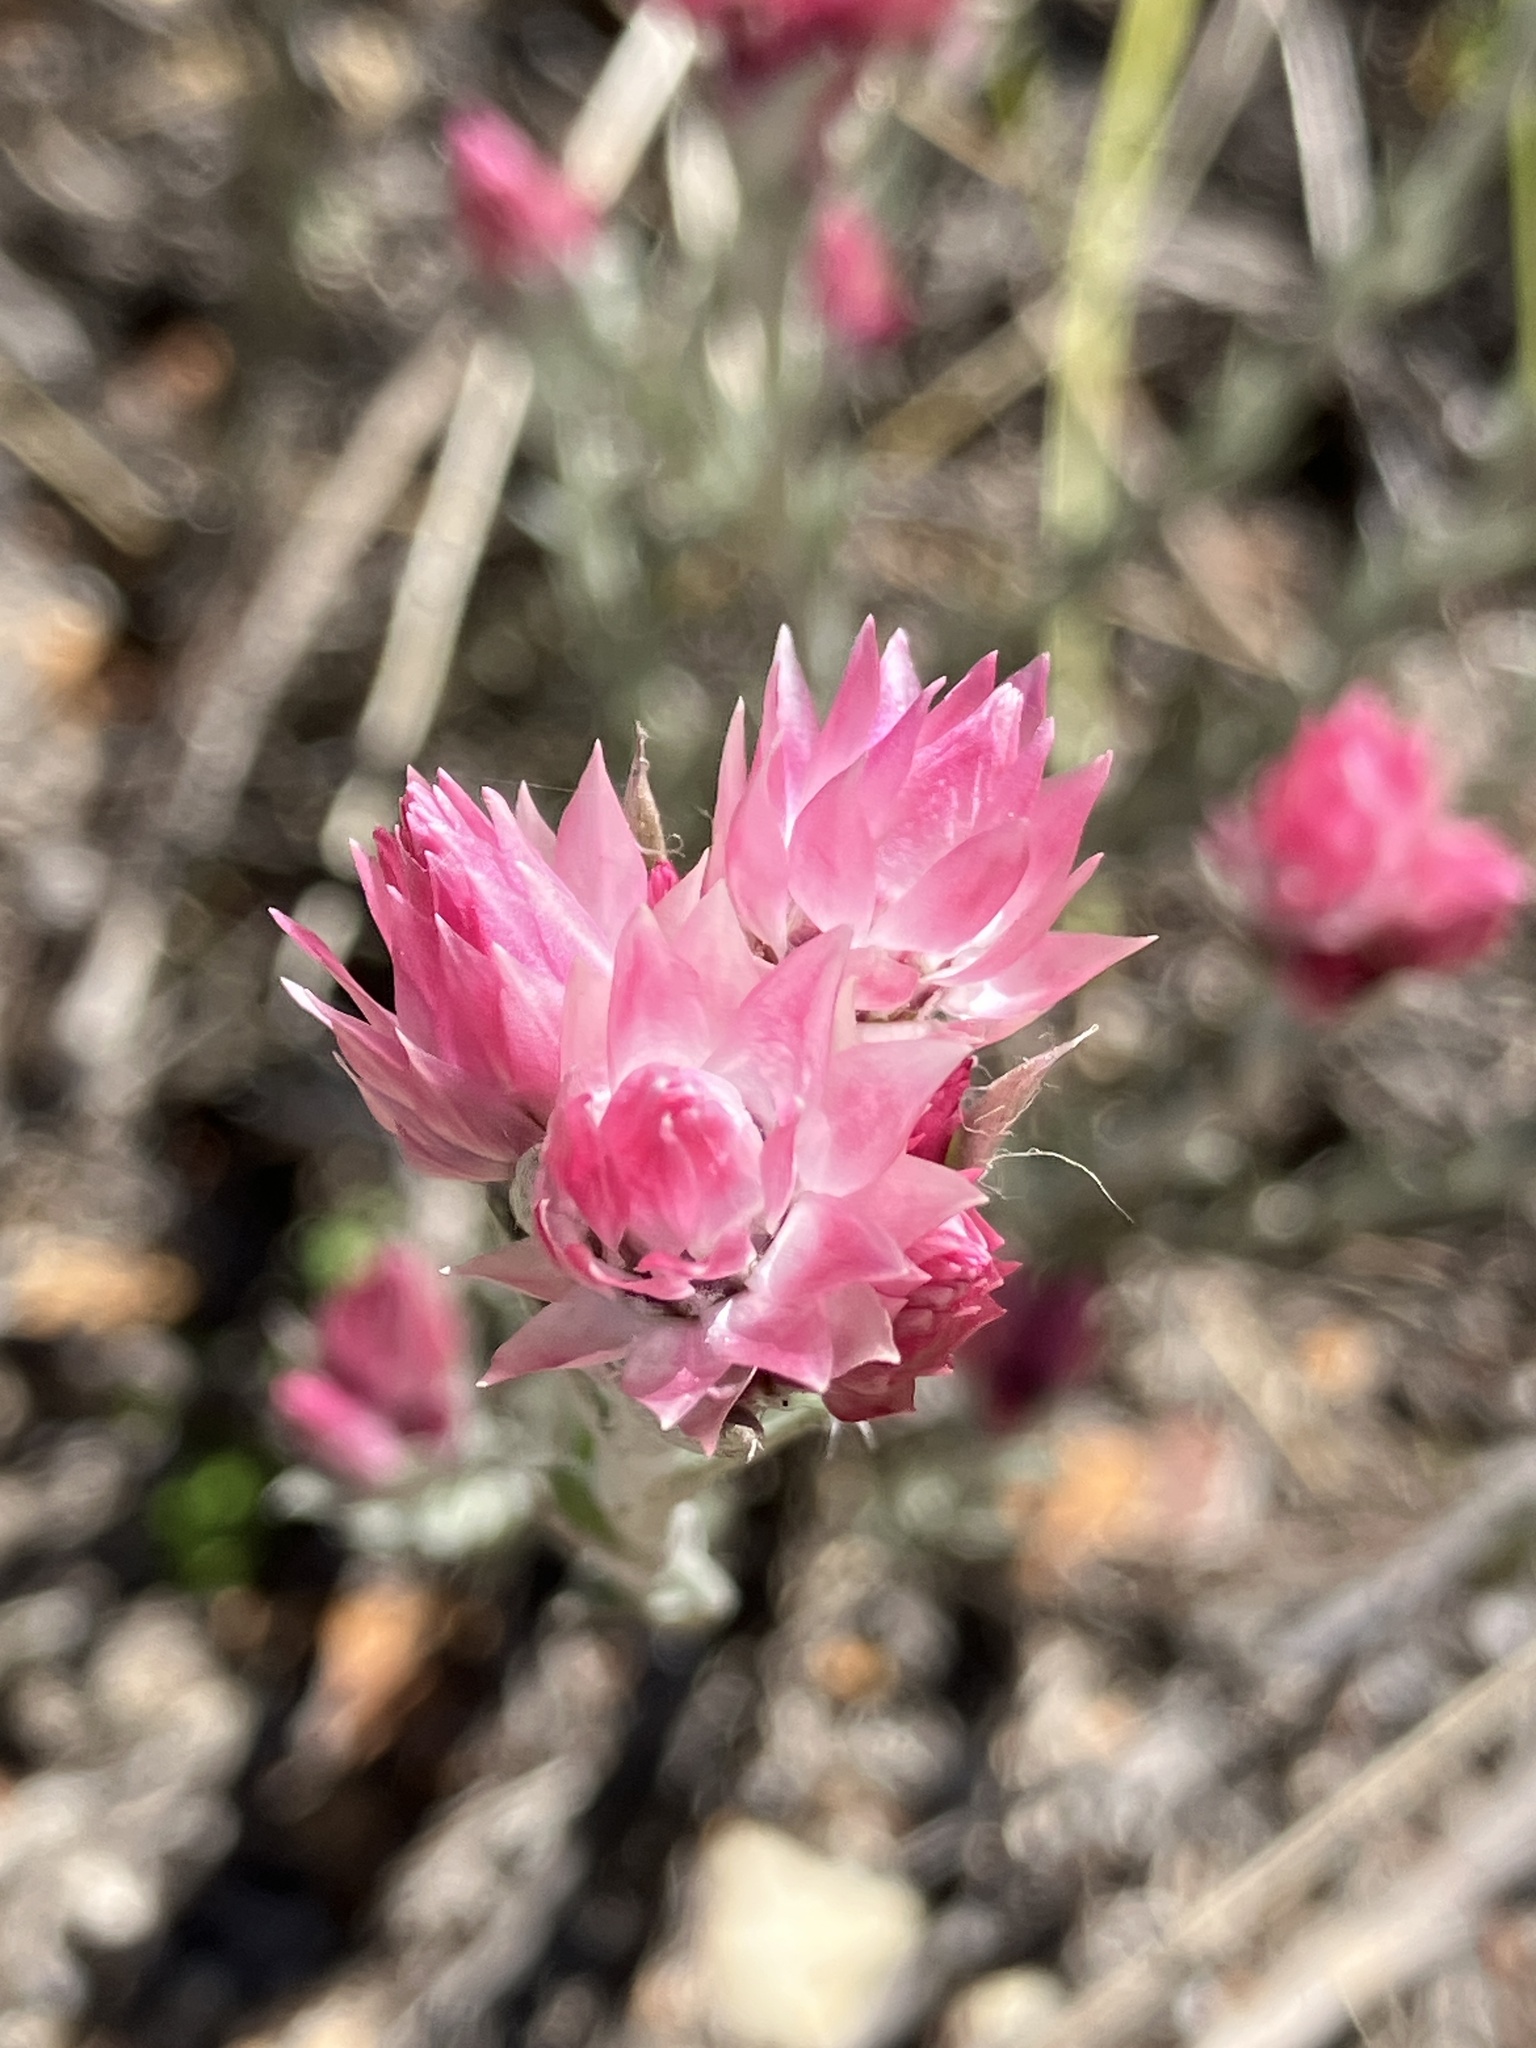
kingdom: Plantae
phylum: Tracheophyta
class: Magnoliopsida
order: Asterales
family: Asteraceae
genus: Achyranthemum
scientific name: Achyranthemum paniculatum
